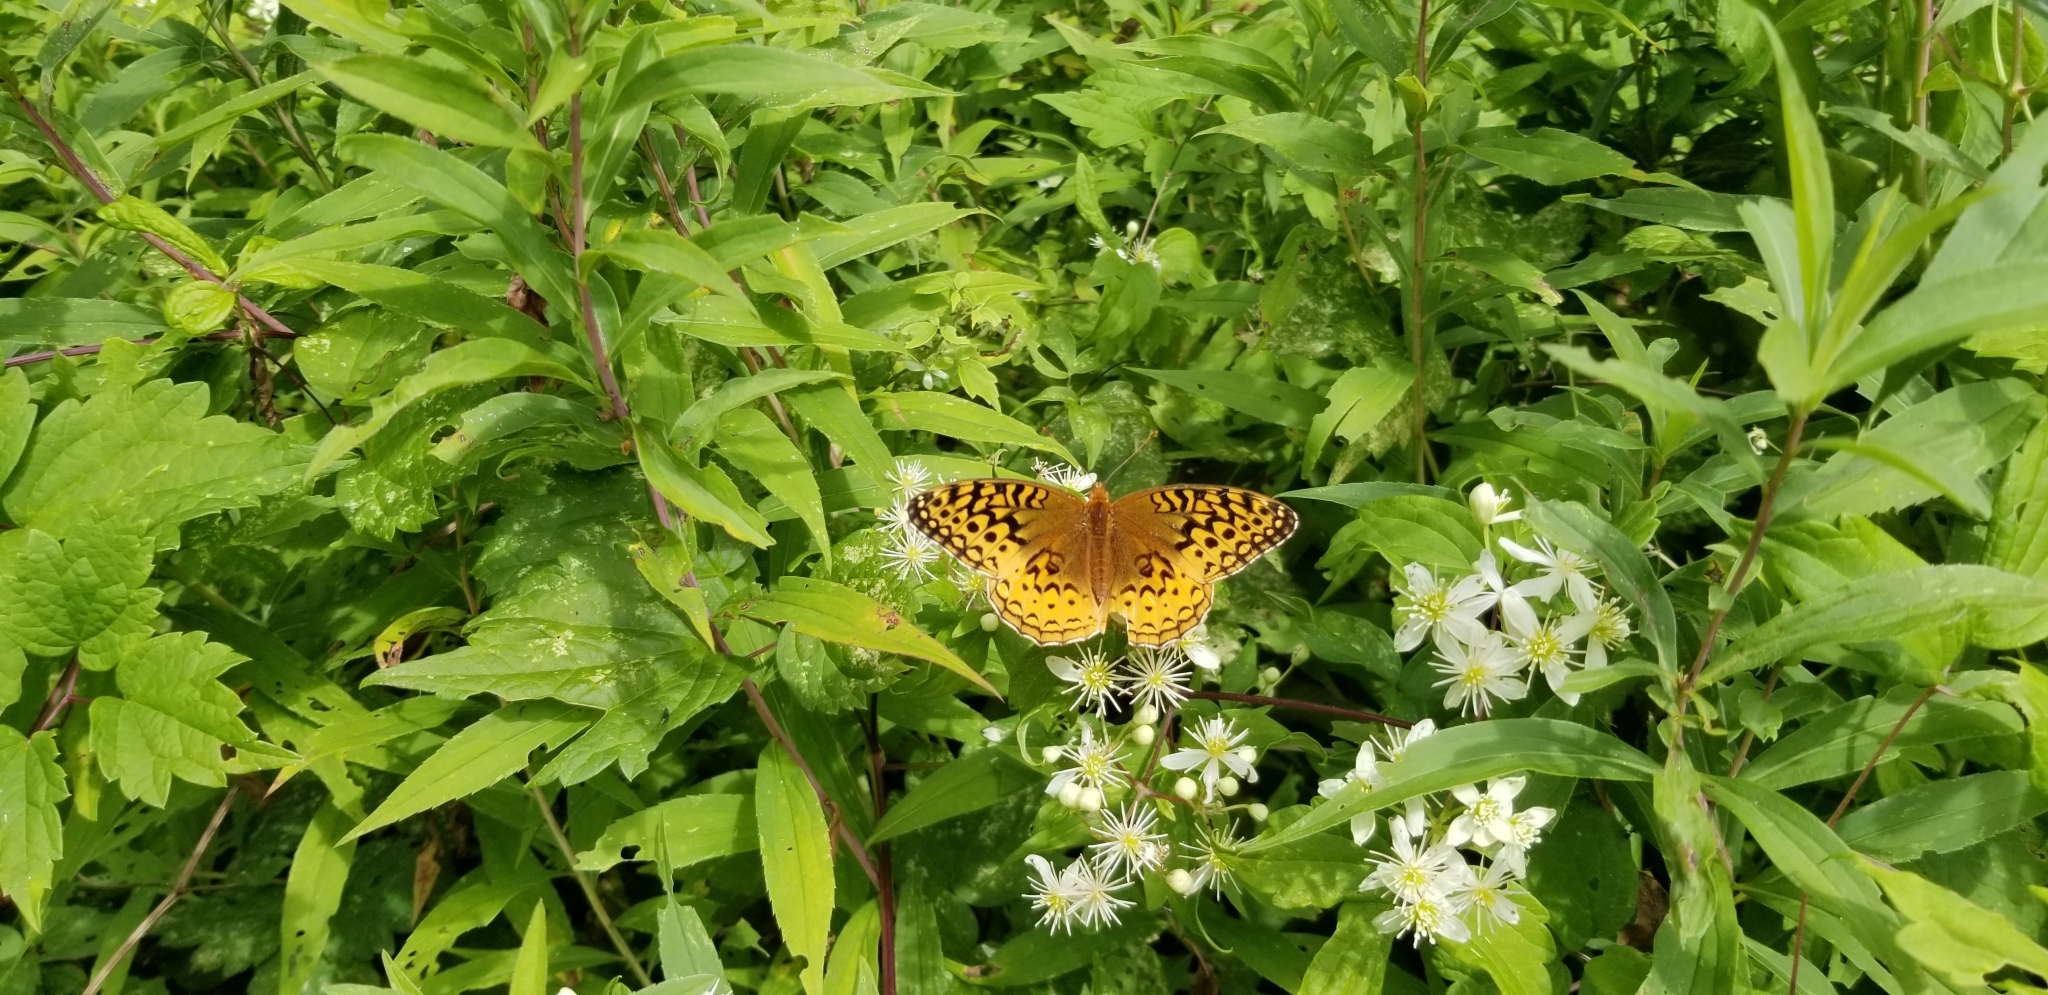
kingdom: Animalia
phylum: Arthropoda
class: Insecta
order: Lepidoptera
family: Nymphalidae
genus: Speyeria
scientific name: Speyeria cybele
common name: Great spangled fritillary
